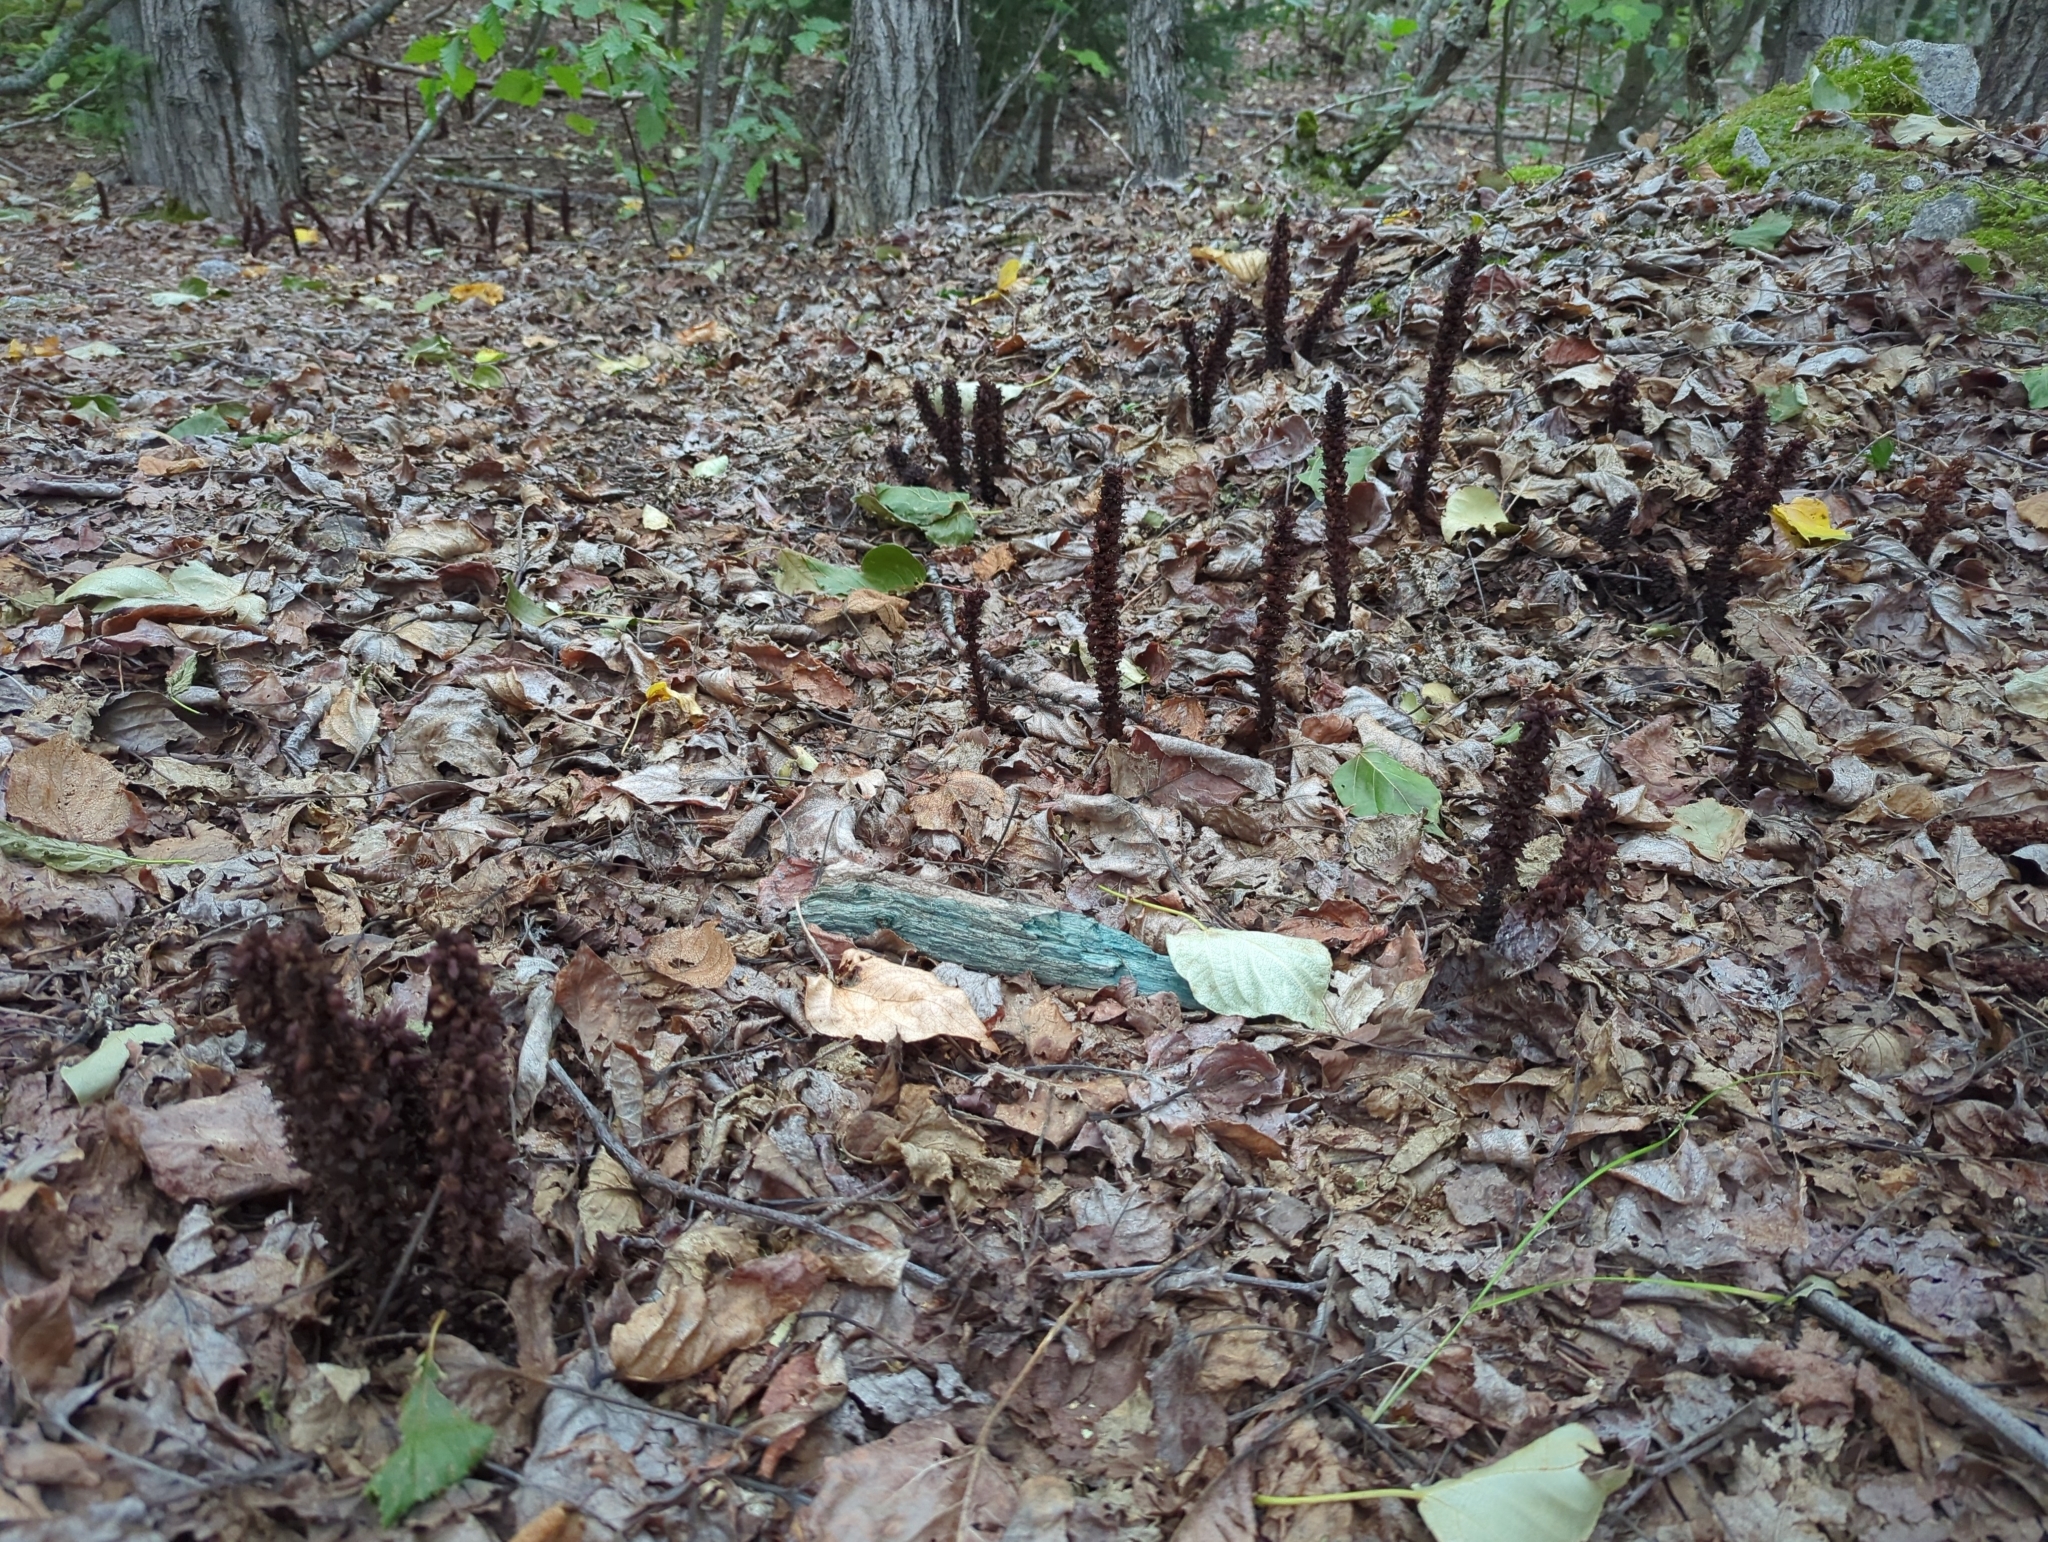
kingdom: Plantae
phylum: Tracheophyta
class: Magnoliopsida
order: Lamiales
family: Orobanchaceae
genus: Boschniakia
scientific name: Boschniakia rossica
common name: Poque
